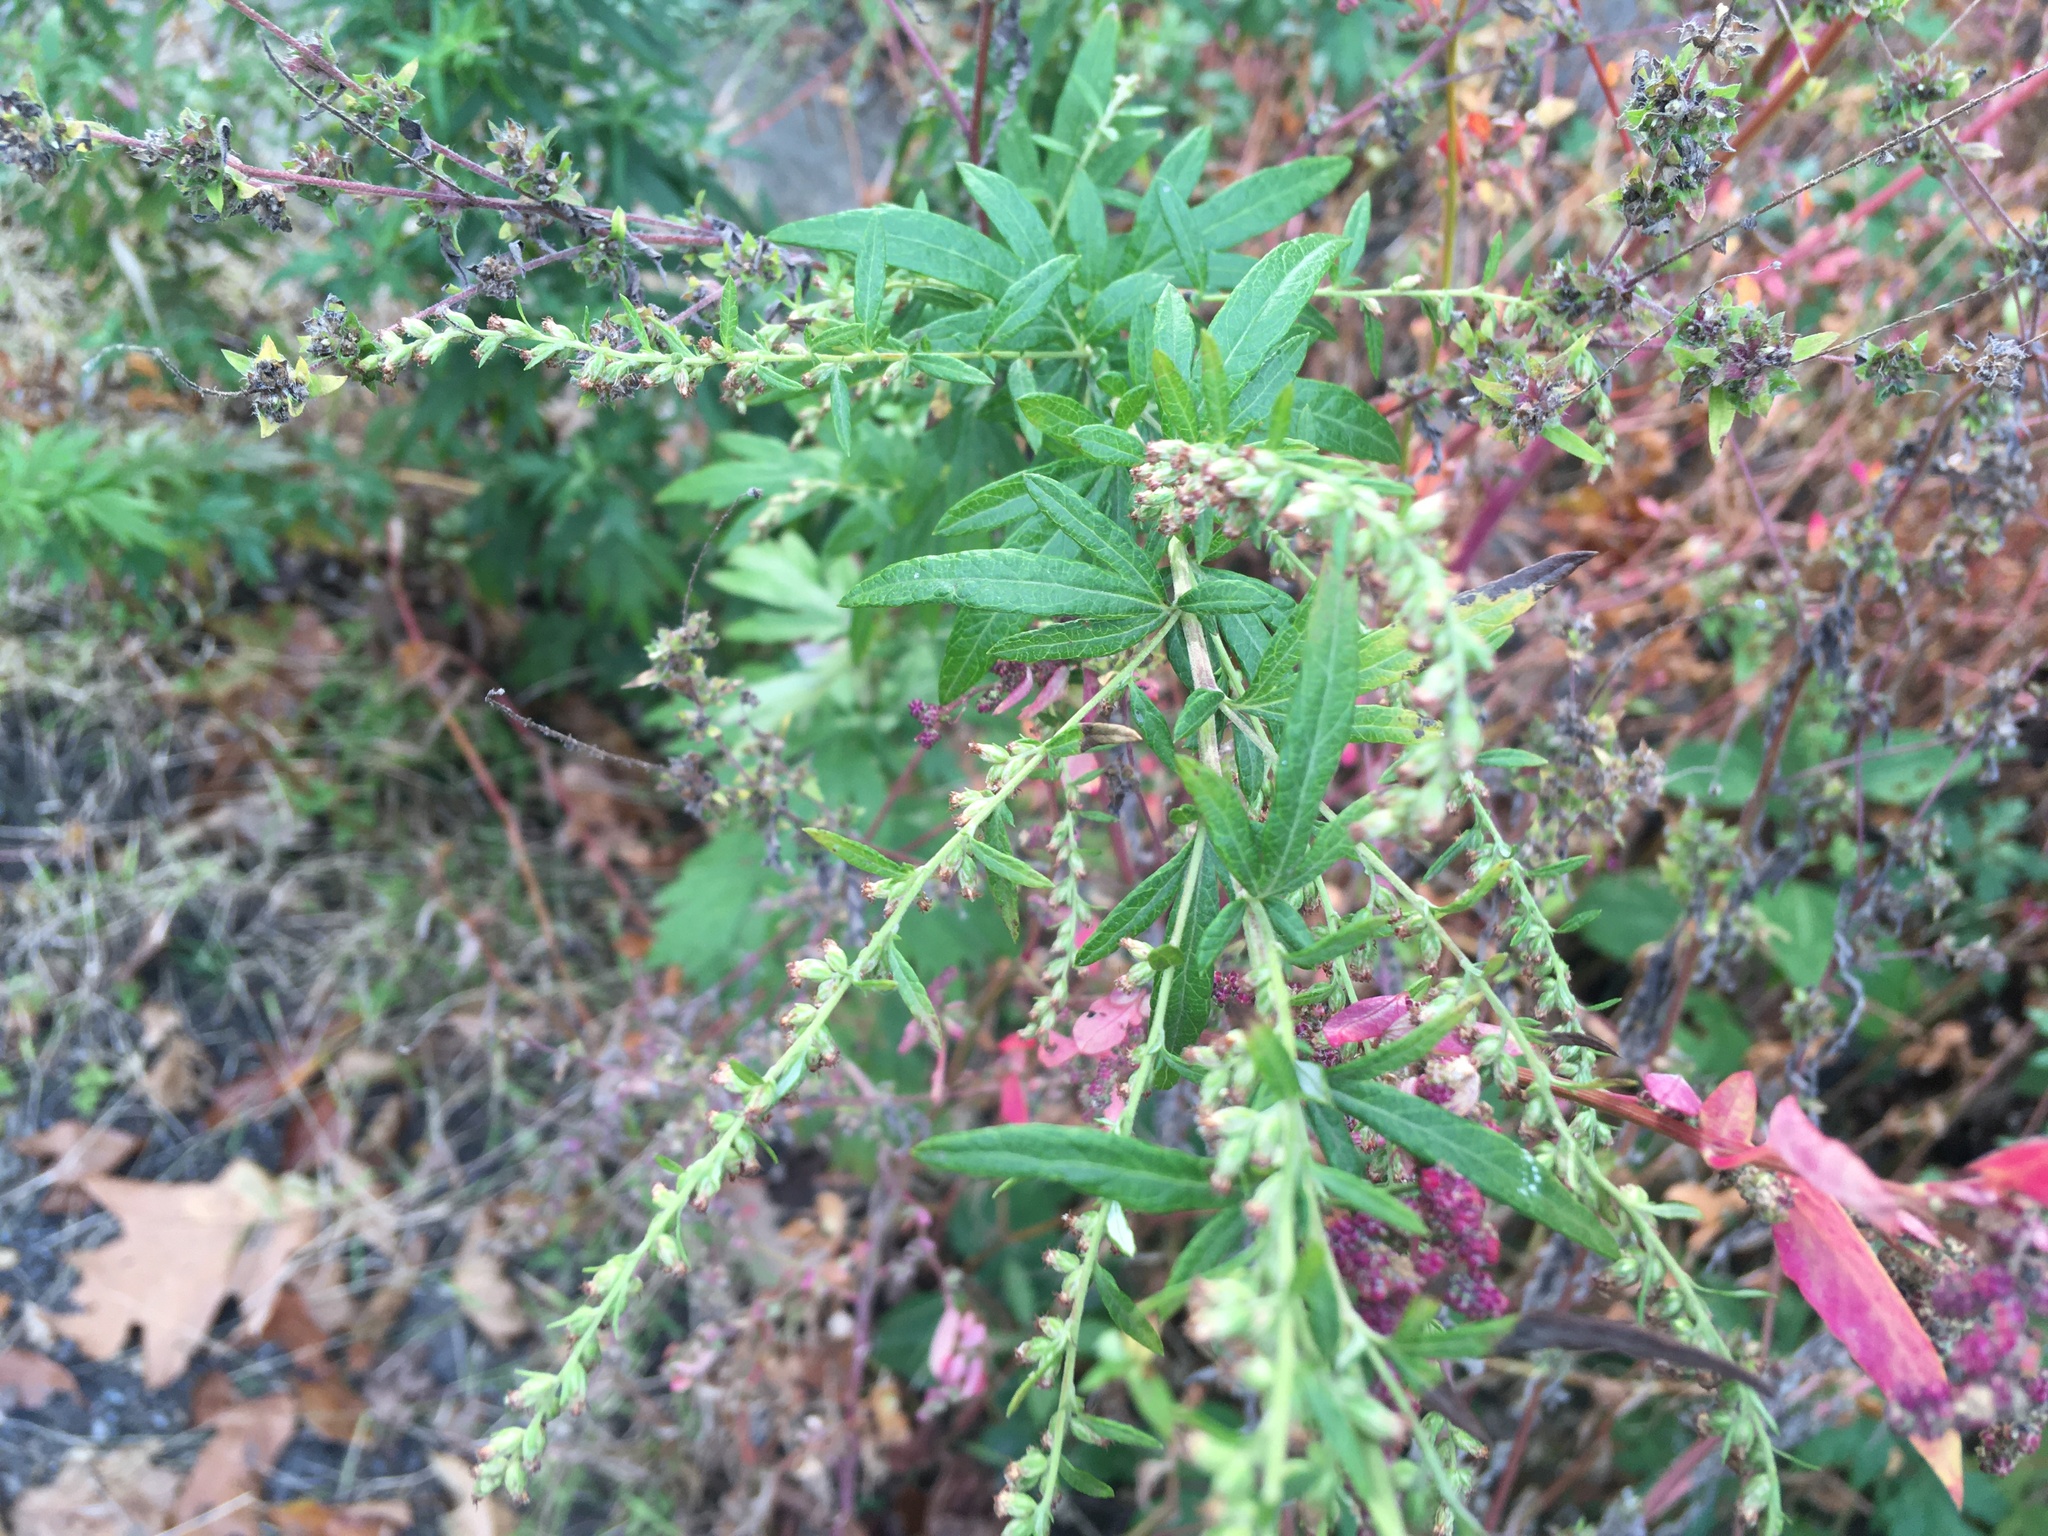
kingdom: Plantae
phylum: Tracheophyta
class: Magnoliopsida
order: Asterales
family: Asteraceae
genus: Artemisia
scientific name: Artemisia vulgaris
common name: Mugwort
